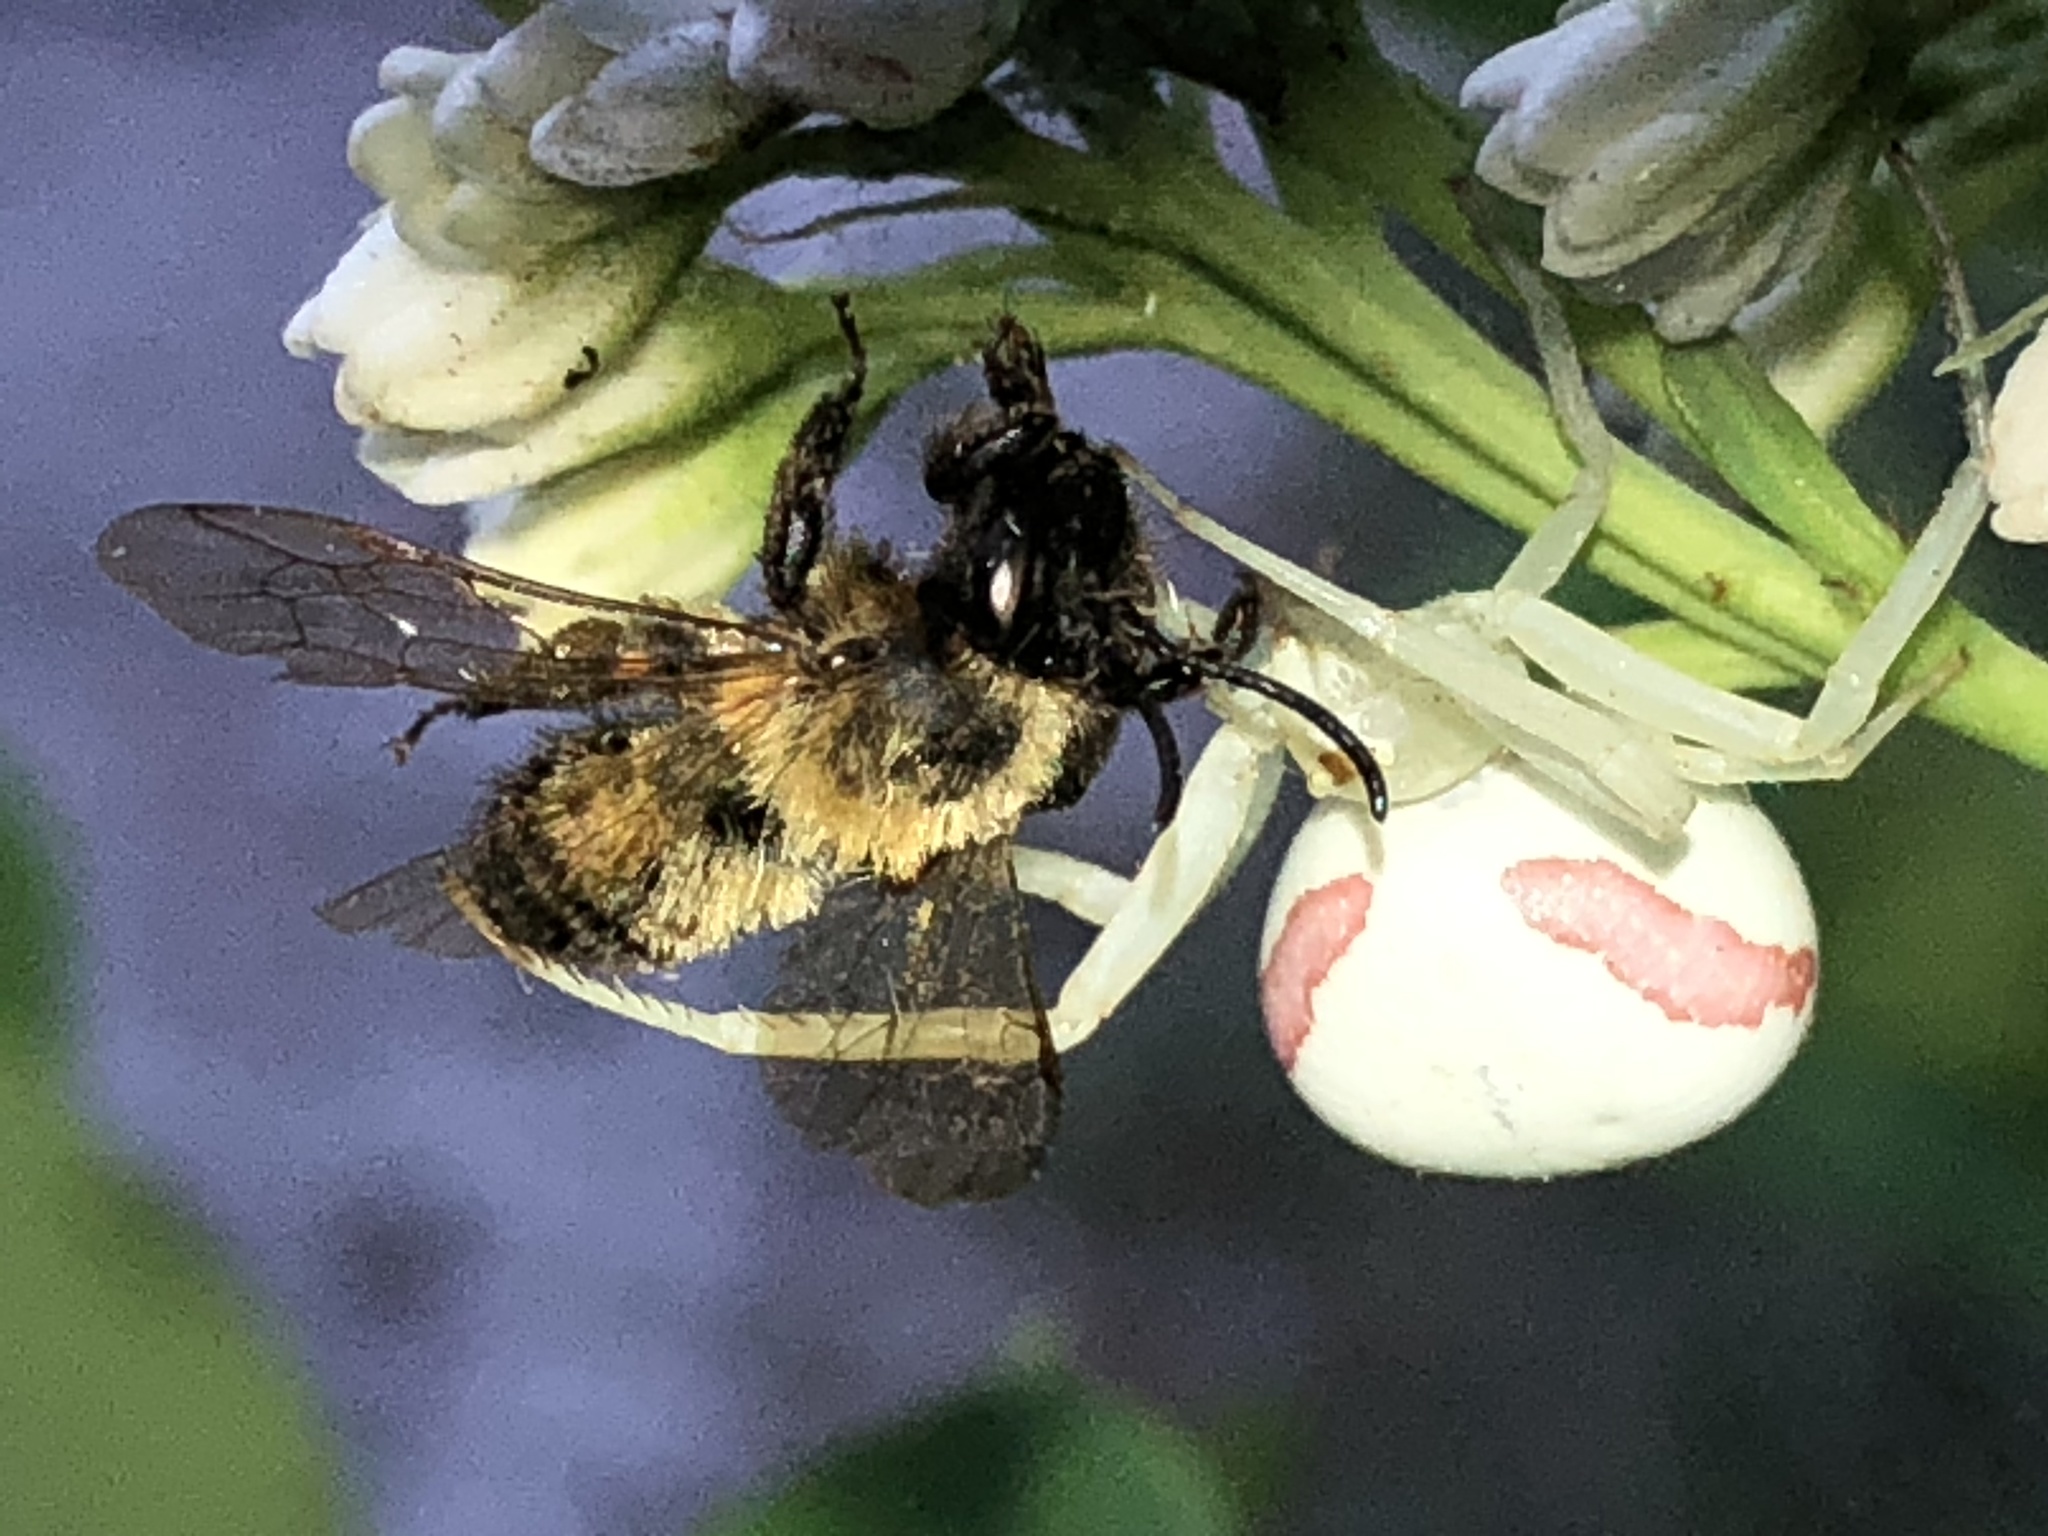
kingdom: Animalia
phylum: Arthropoda
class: Arachnida
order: Araneae
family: Thomisidae
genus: Misumena
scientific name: Misumena vatia
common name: Goldenrod crab spider
